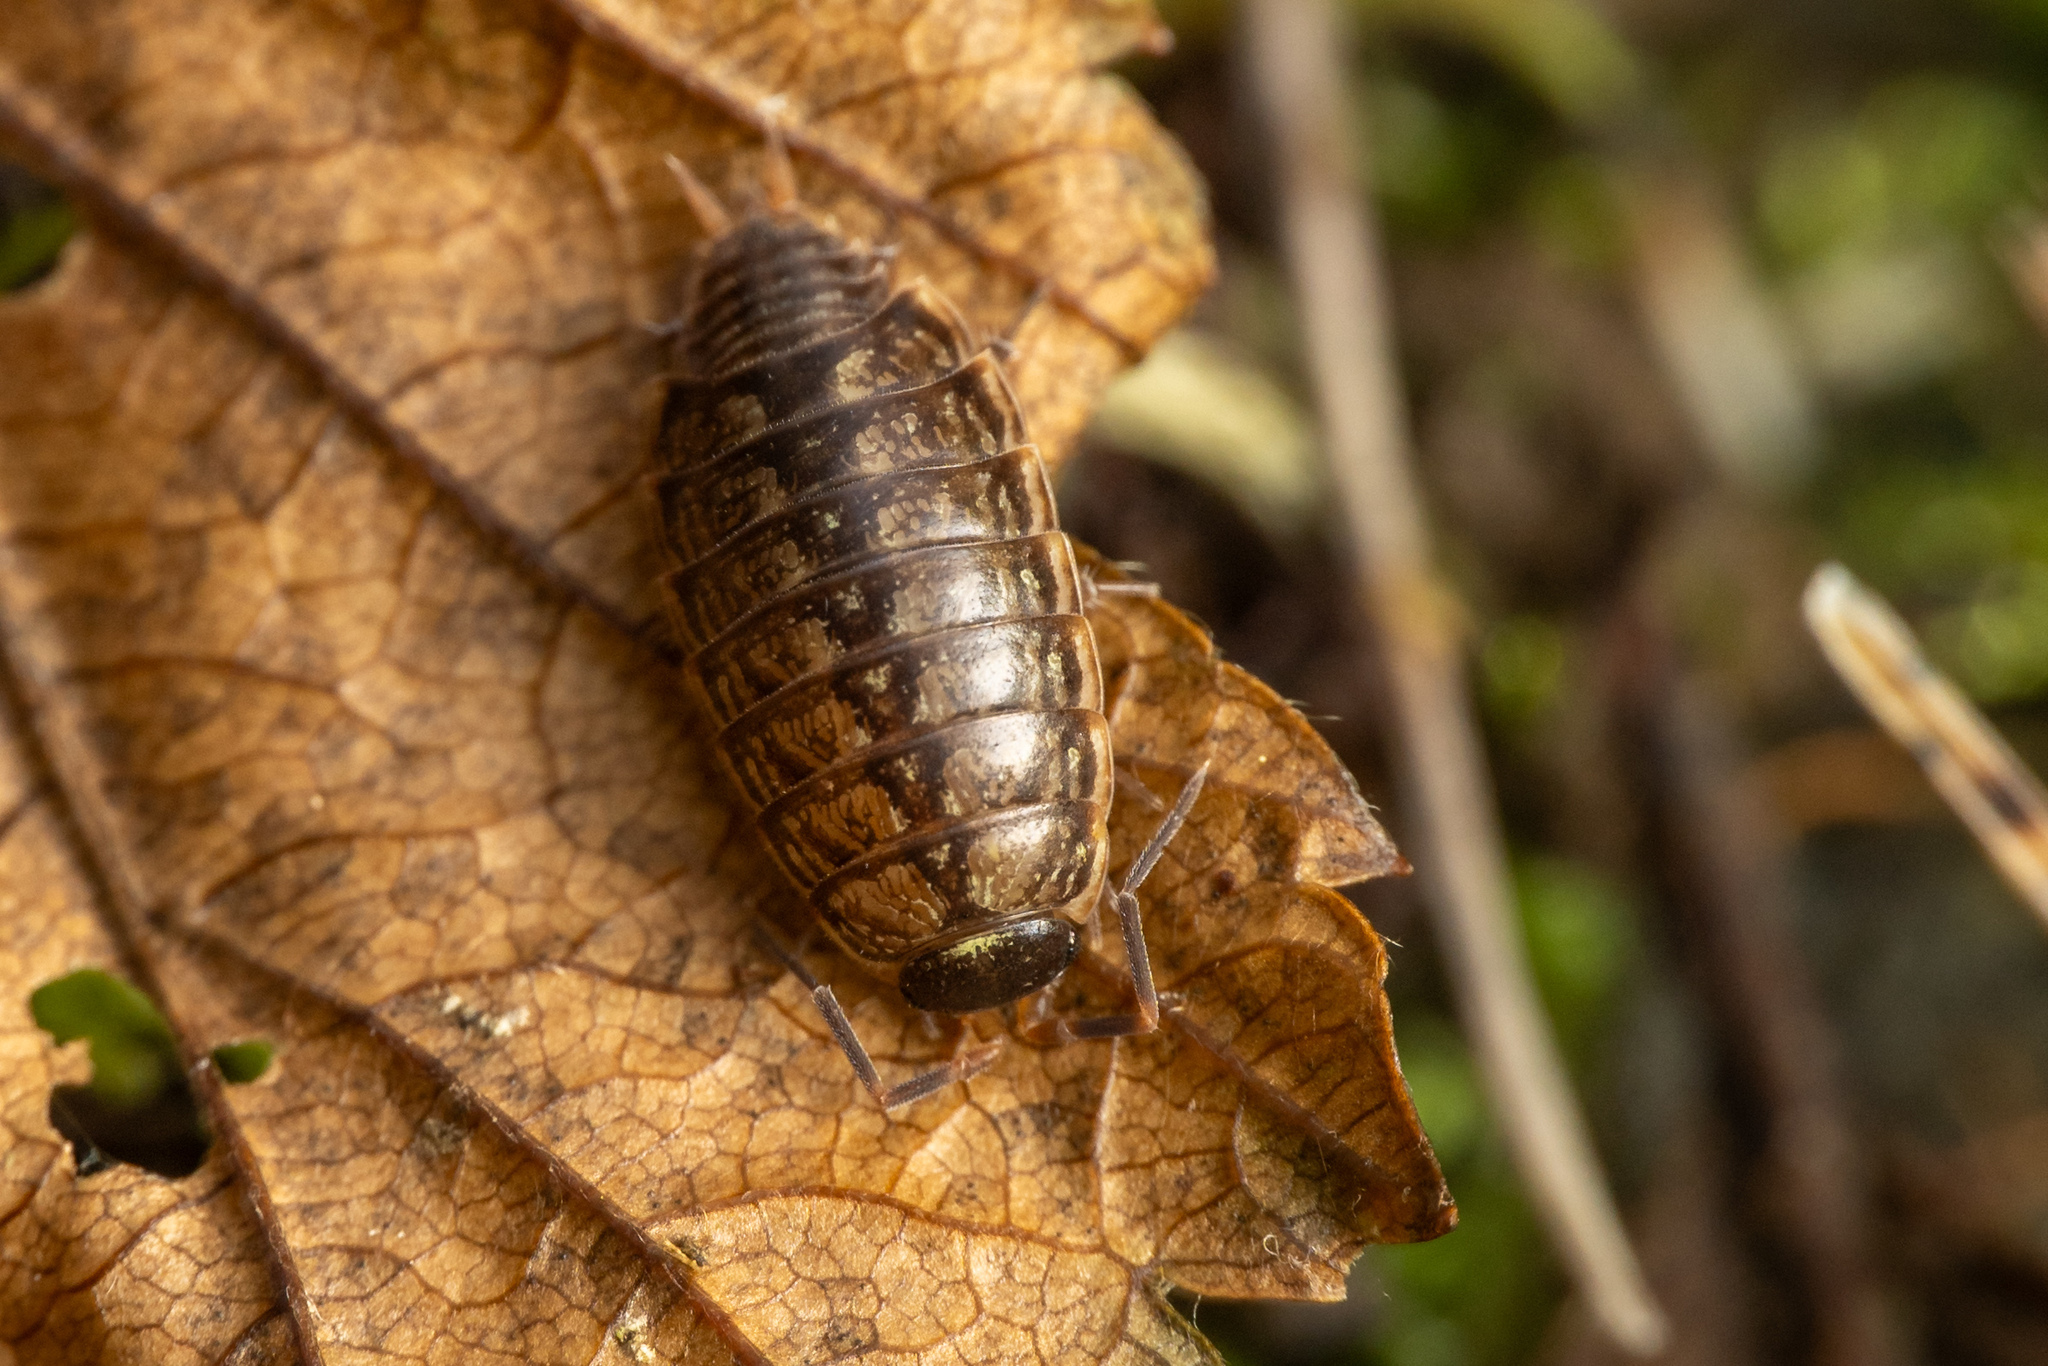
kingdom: Animalia
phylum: Arthropoda
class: Malacostraca
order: Isopoda
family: Philosciidae
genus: Philoscia
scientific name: Philoscia muscorum
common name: Common striped woodlouse
